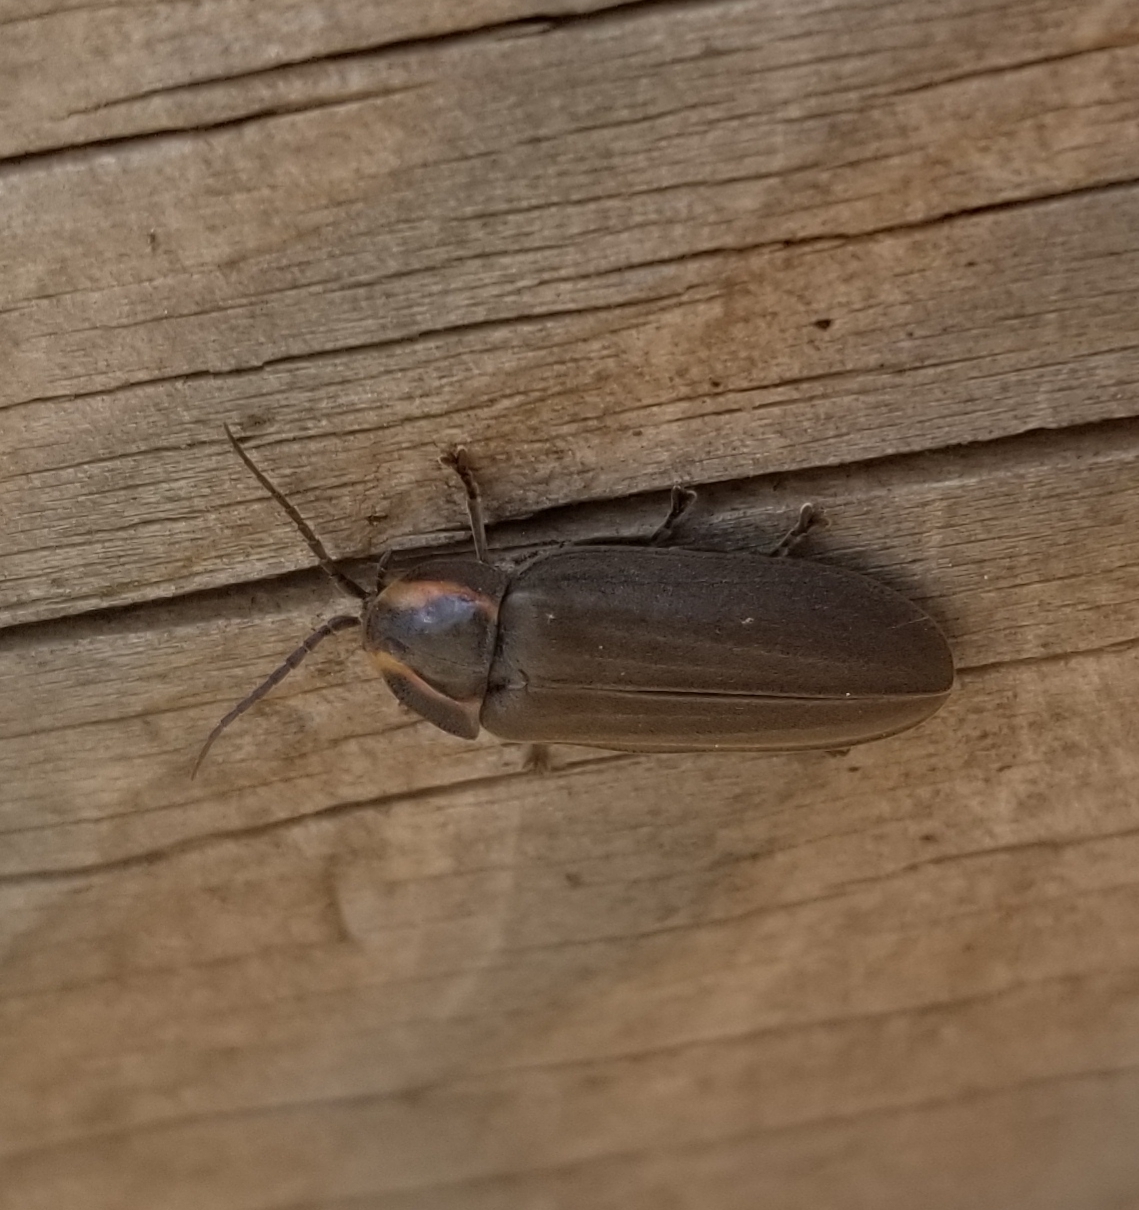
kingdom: Animalia
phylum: Arthropoda
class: Insecta
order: Coleoptera
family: Lampyridae
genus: Photinus
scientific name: Photinus corrusca
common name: Winter firefly
